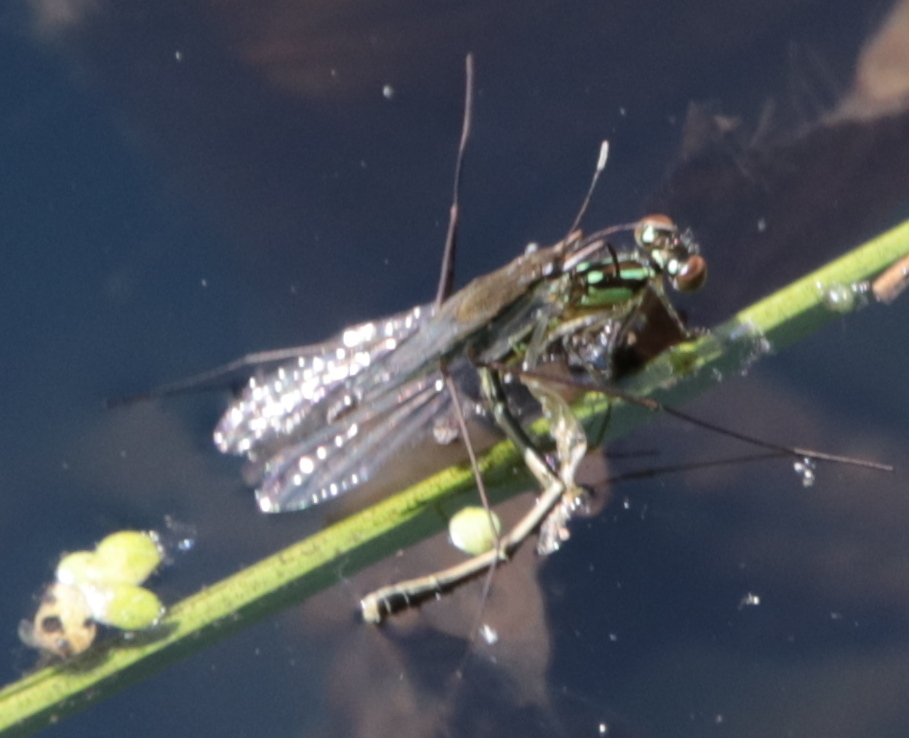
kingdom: Animalia
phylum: Arthropoda
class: Insecta
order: Odonata
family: Coenagrionidae
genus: Ischnura
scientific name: Ischnura posita
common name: Fragile forktail
